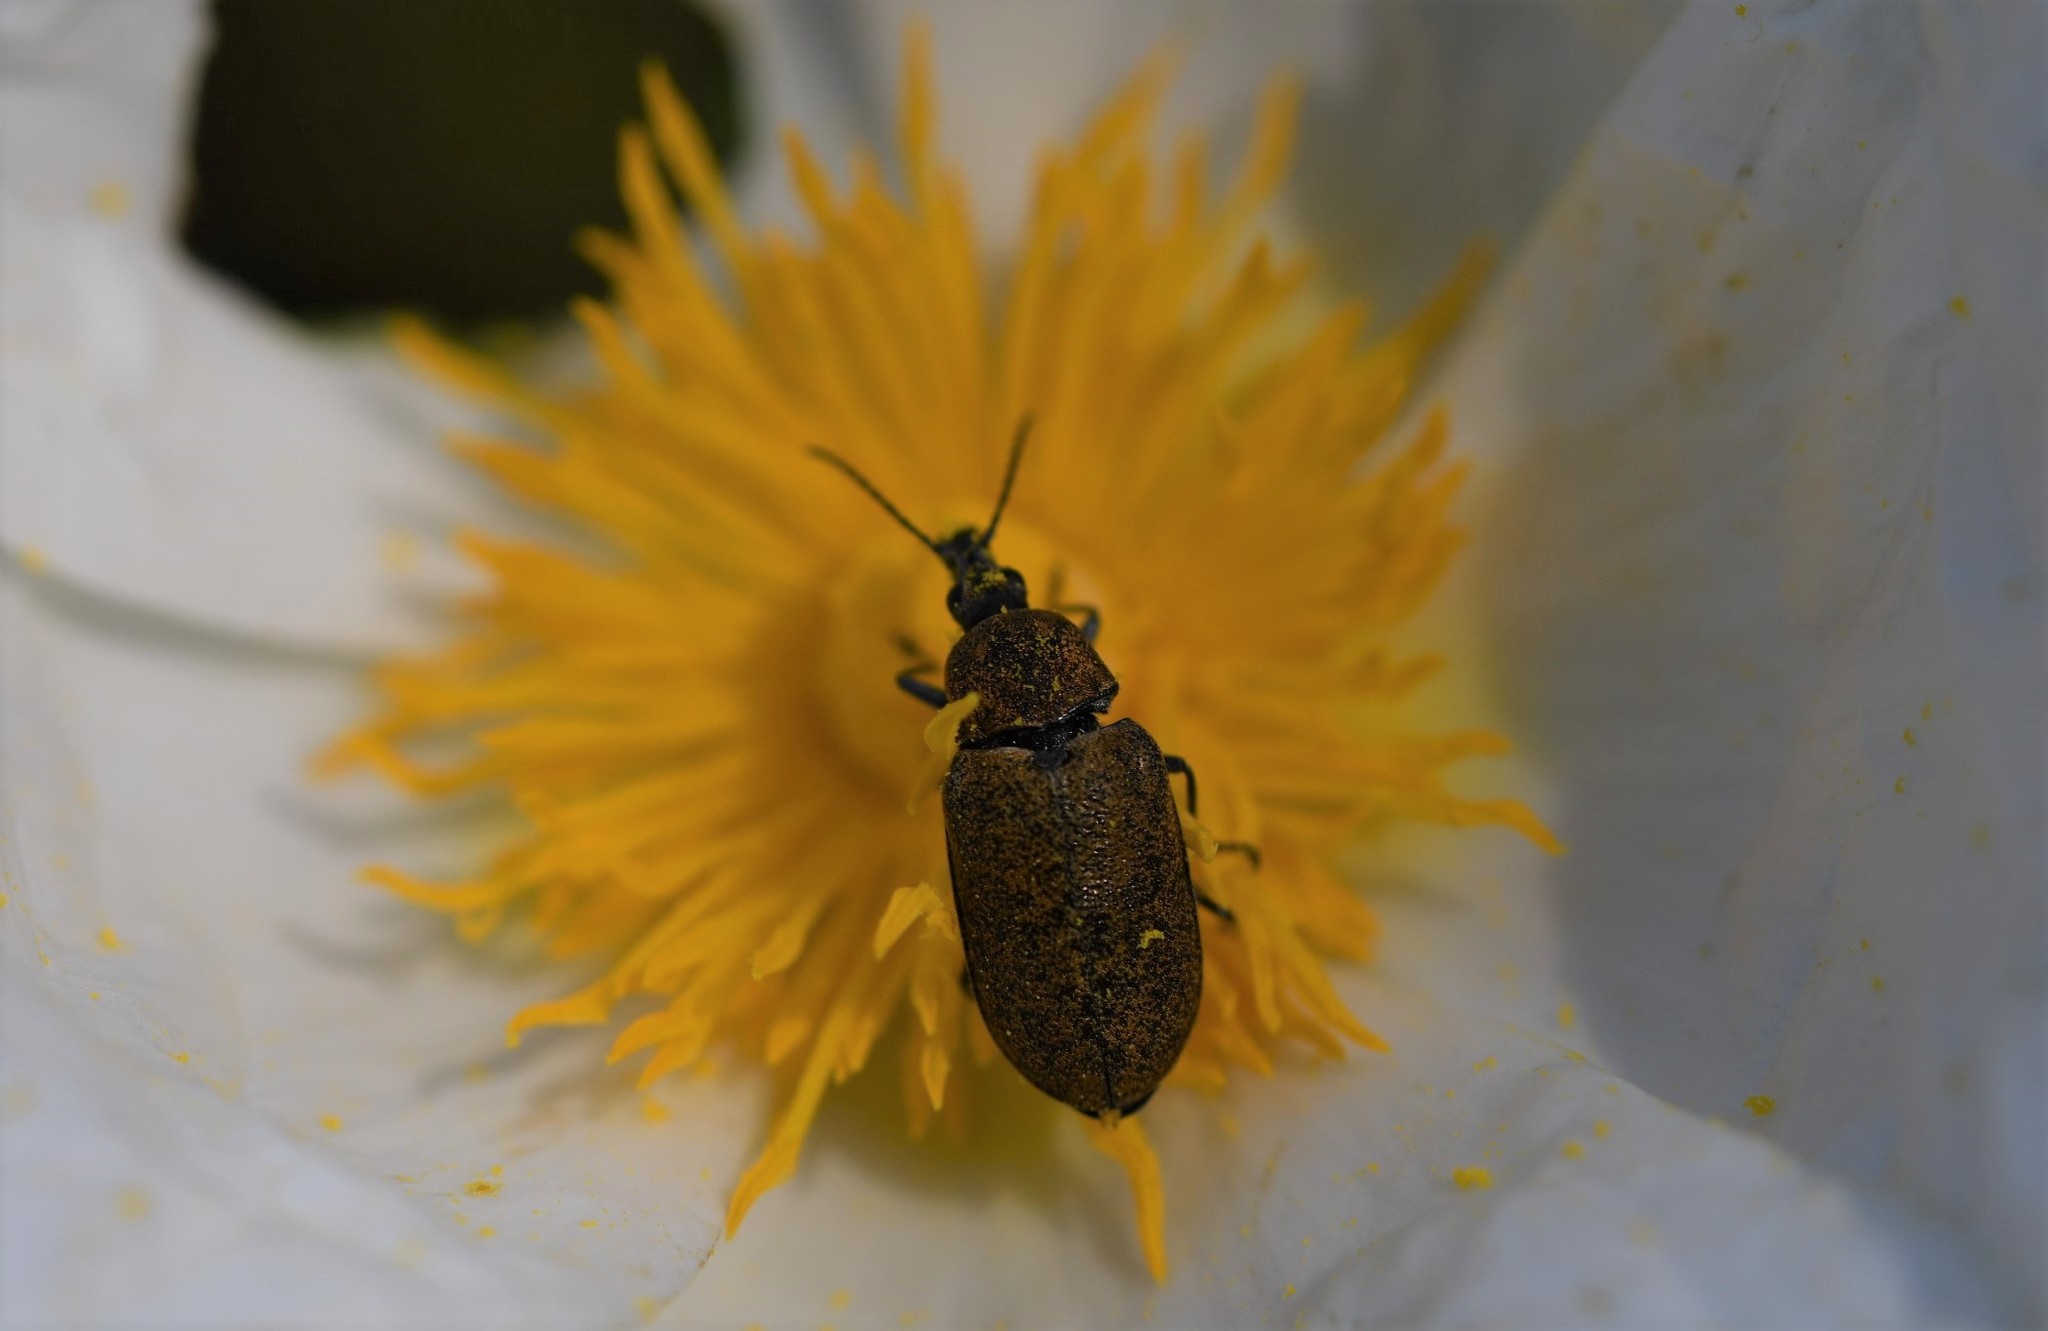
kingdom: Animalia
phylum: Arthropoda
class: Insecta
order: Coleoptera
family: Mycteridae
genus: Mycterus
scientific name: Mycterus curculioides
